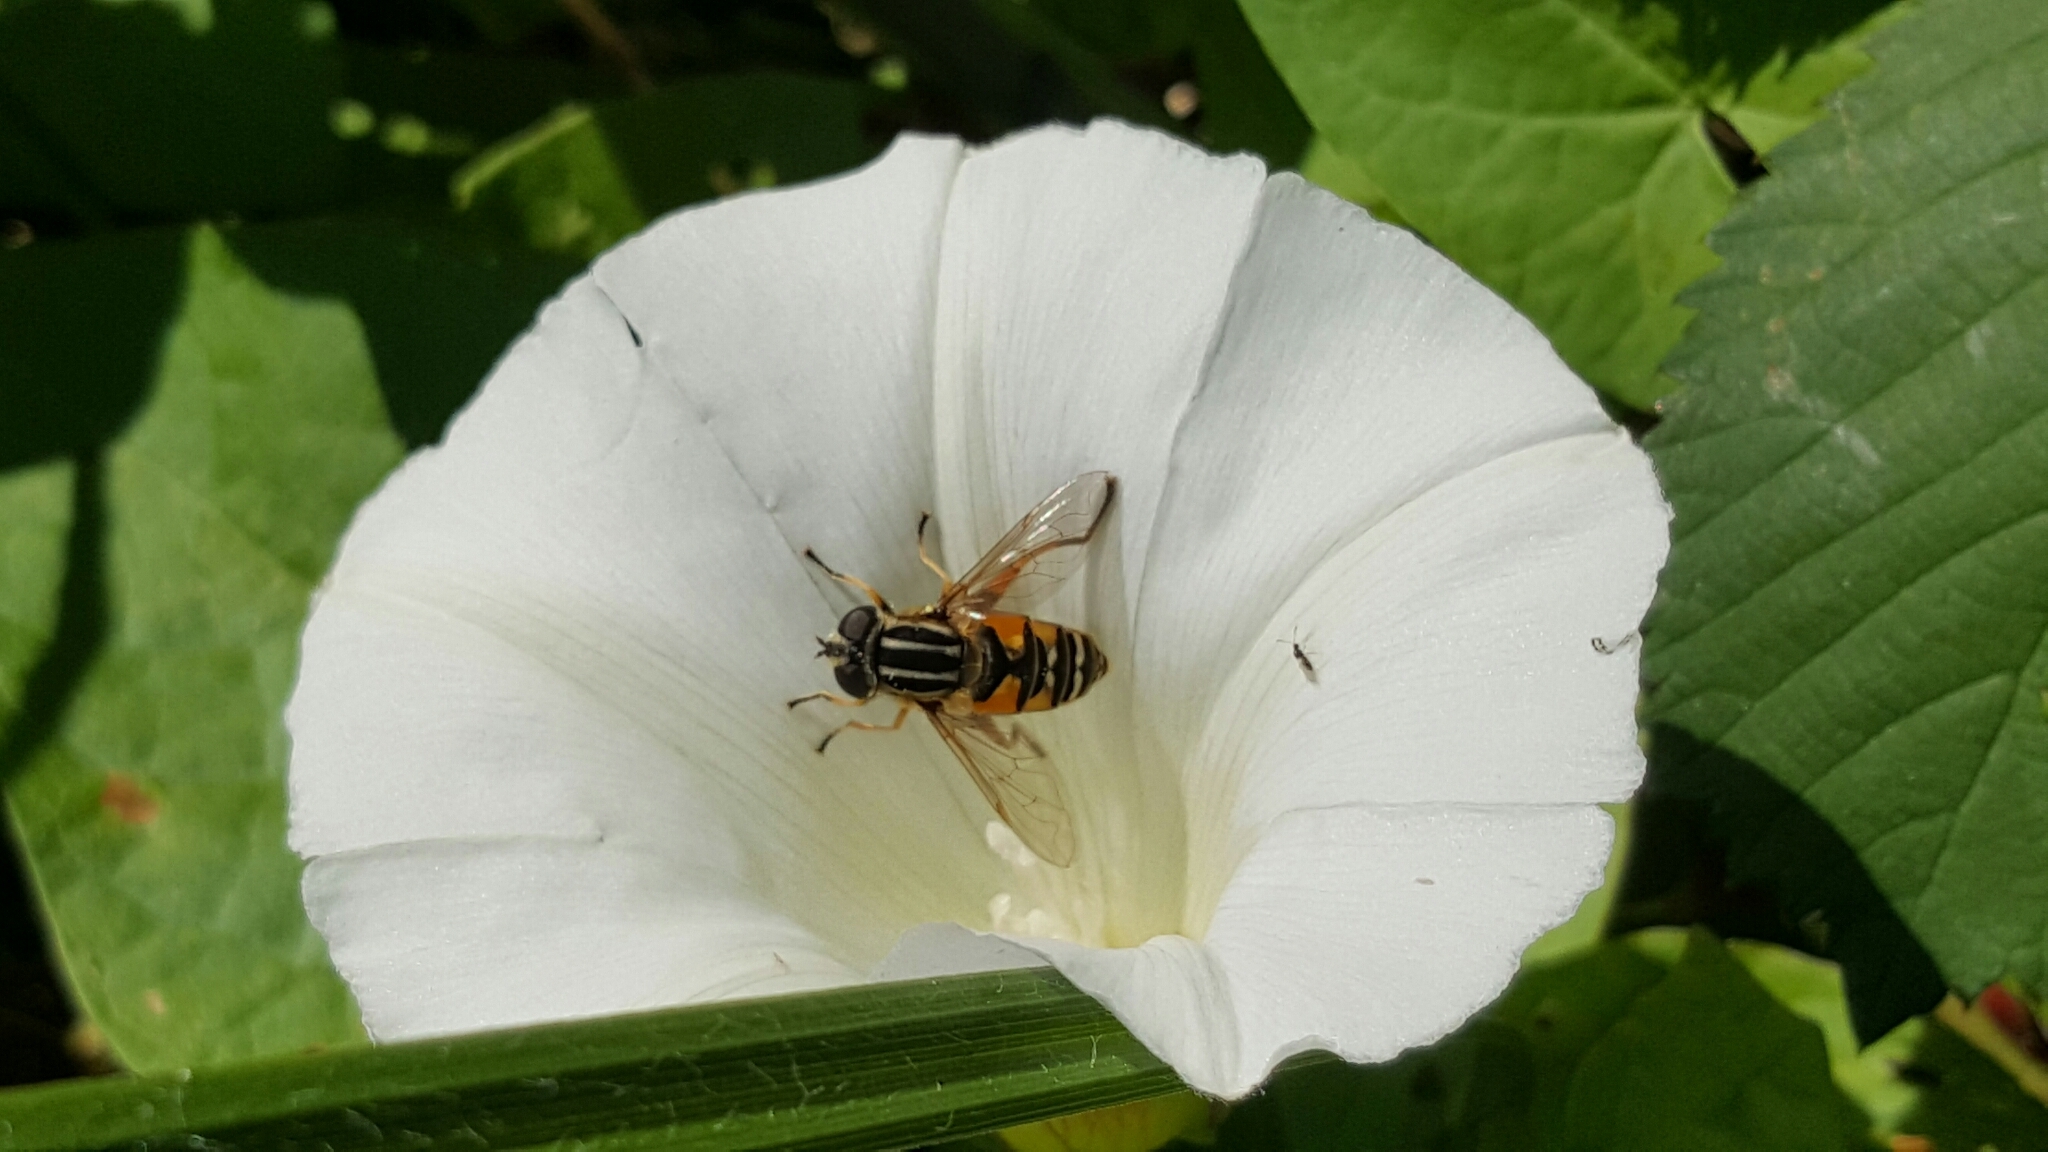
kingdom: Animalia
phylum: Arthropoda
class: Insecta
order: Diptera
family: Syrphidae
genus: Helophilus
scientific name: Helophilus pendulus
